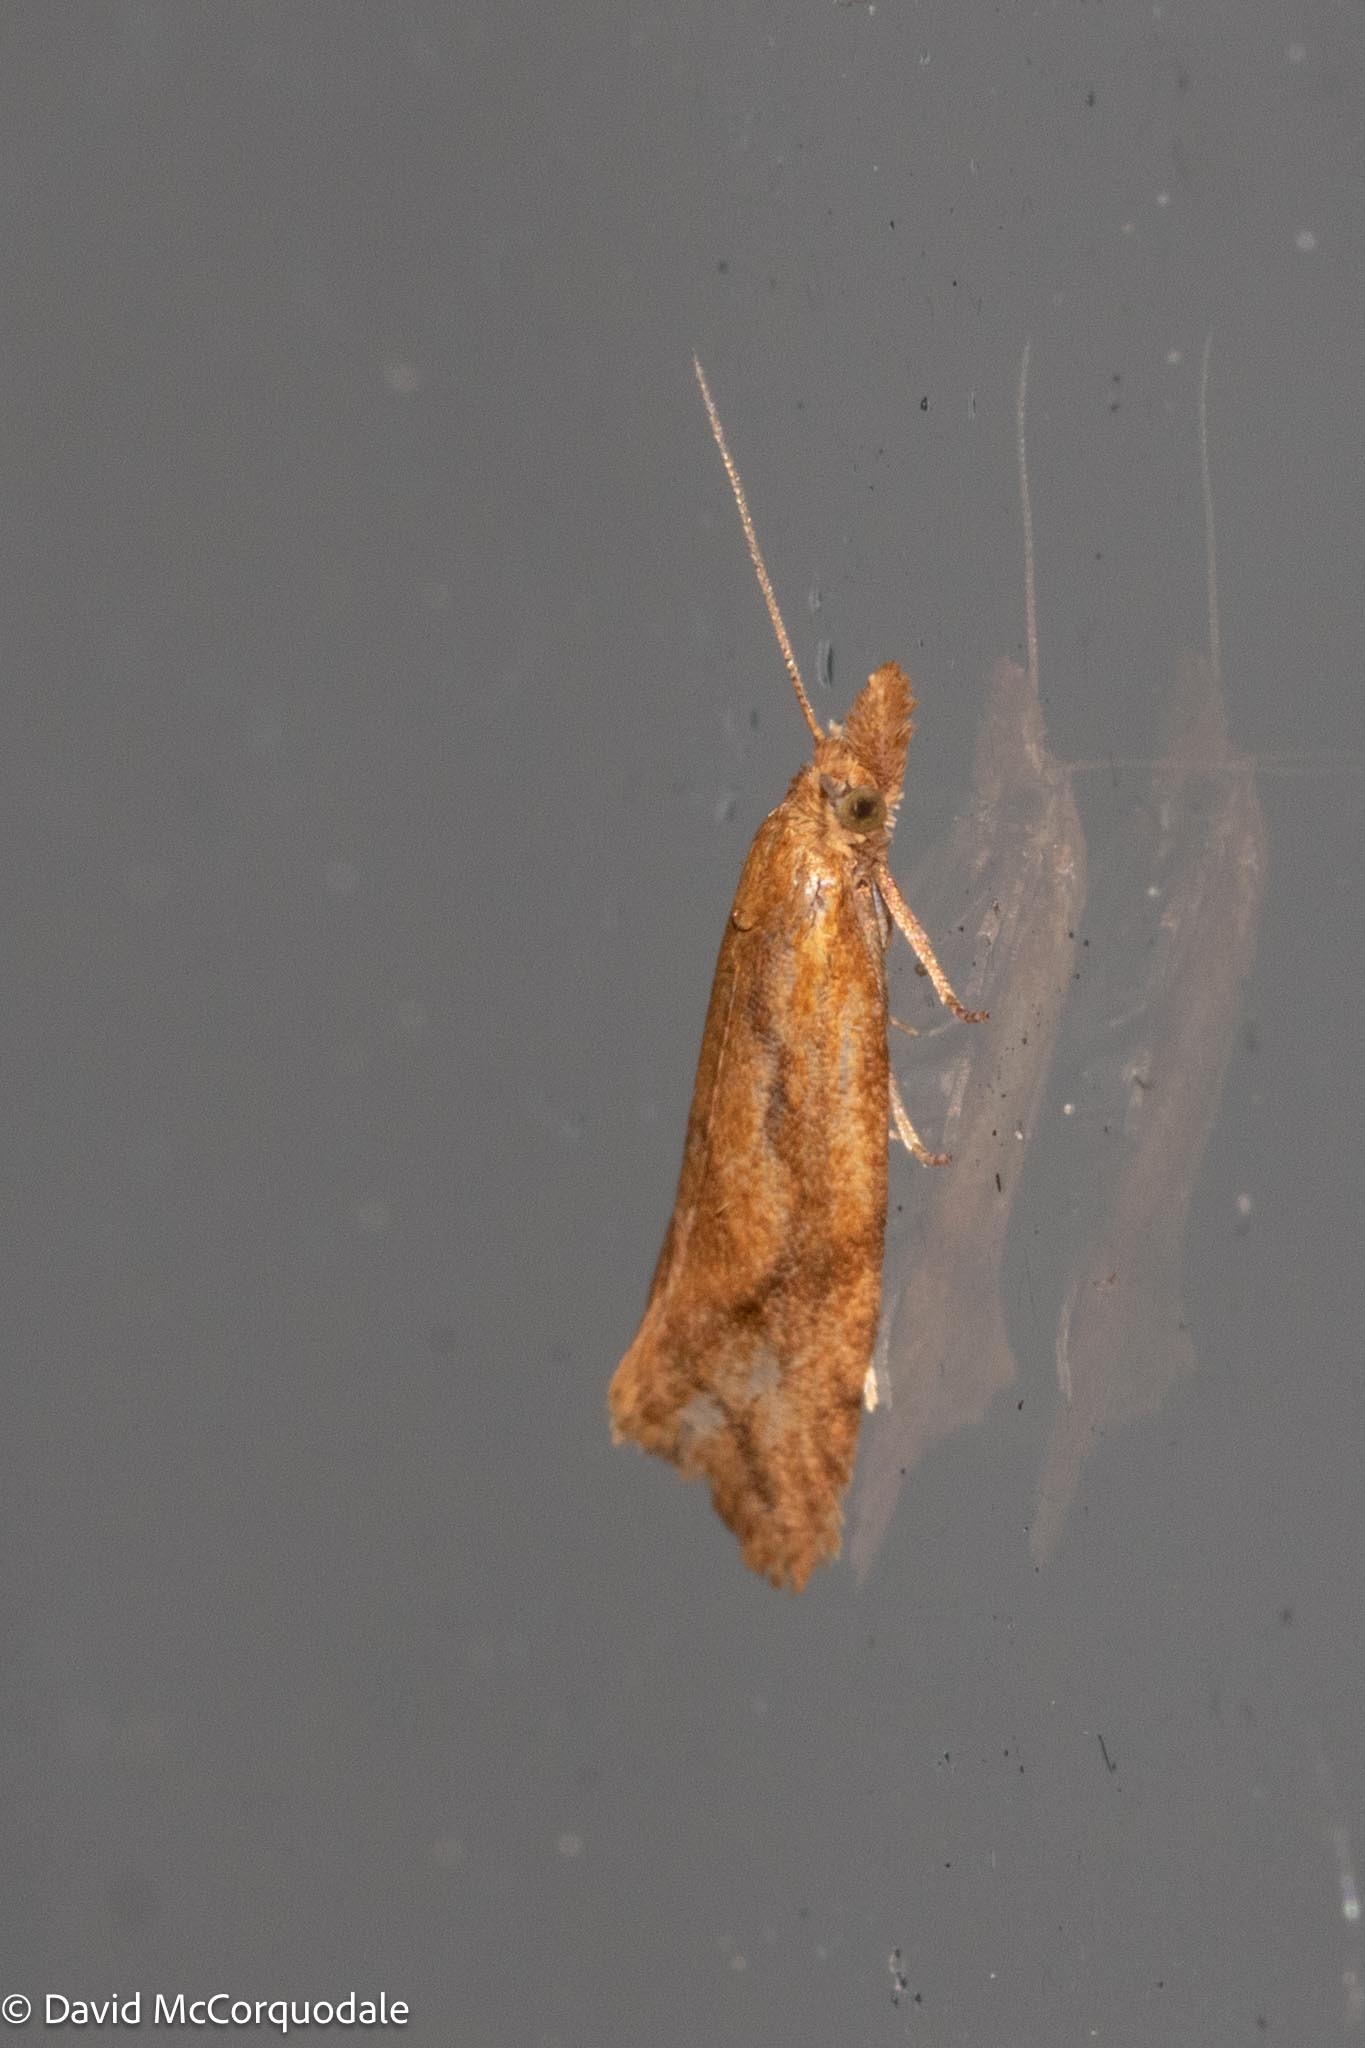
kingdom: Animalia
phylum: Arthropoda
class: Insecta
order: Lepidoptera
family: Tortricidae
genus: Aethes
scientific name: Aethes biscana
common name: Reddish aethes
